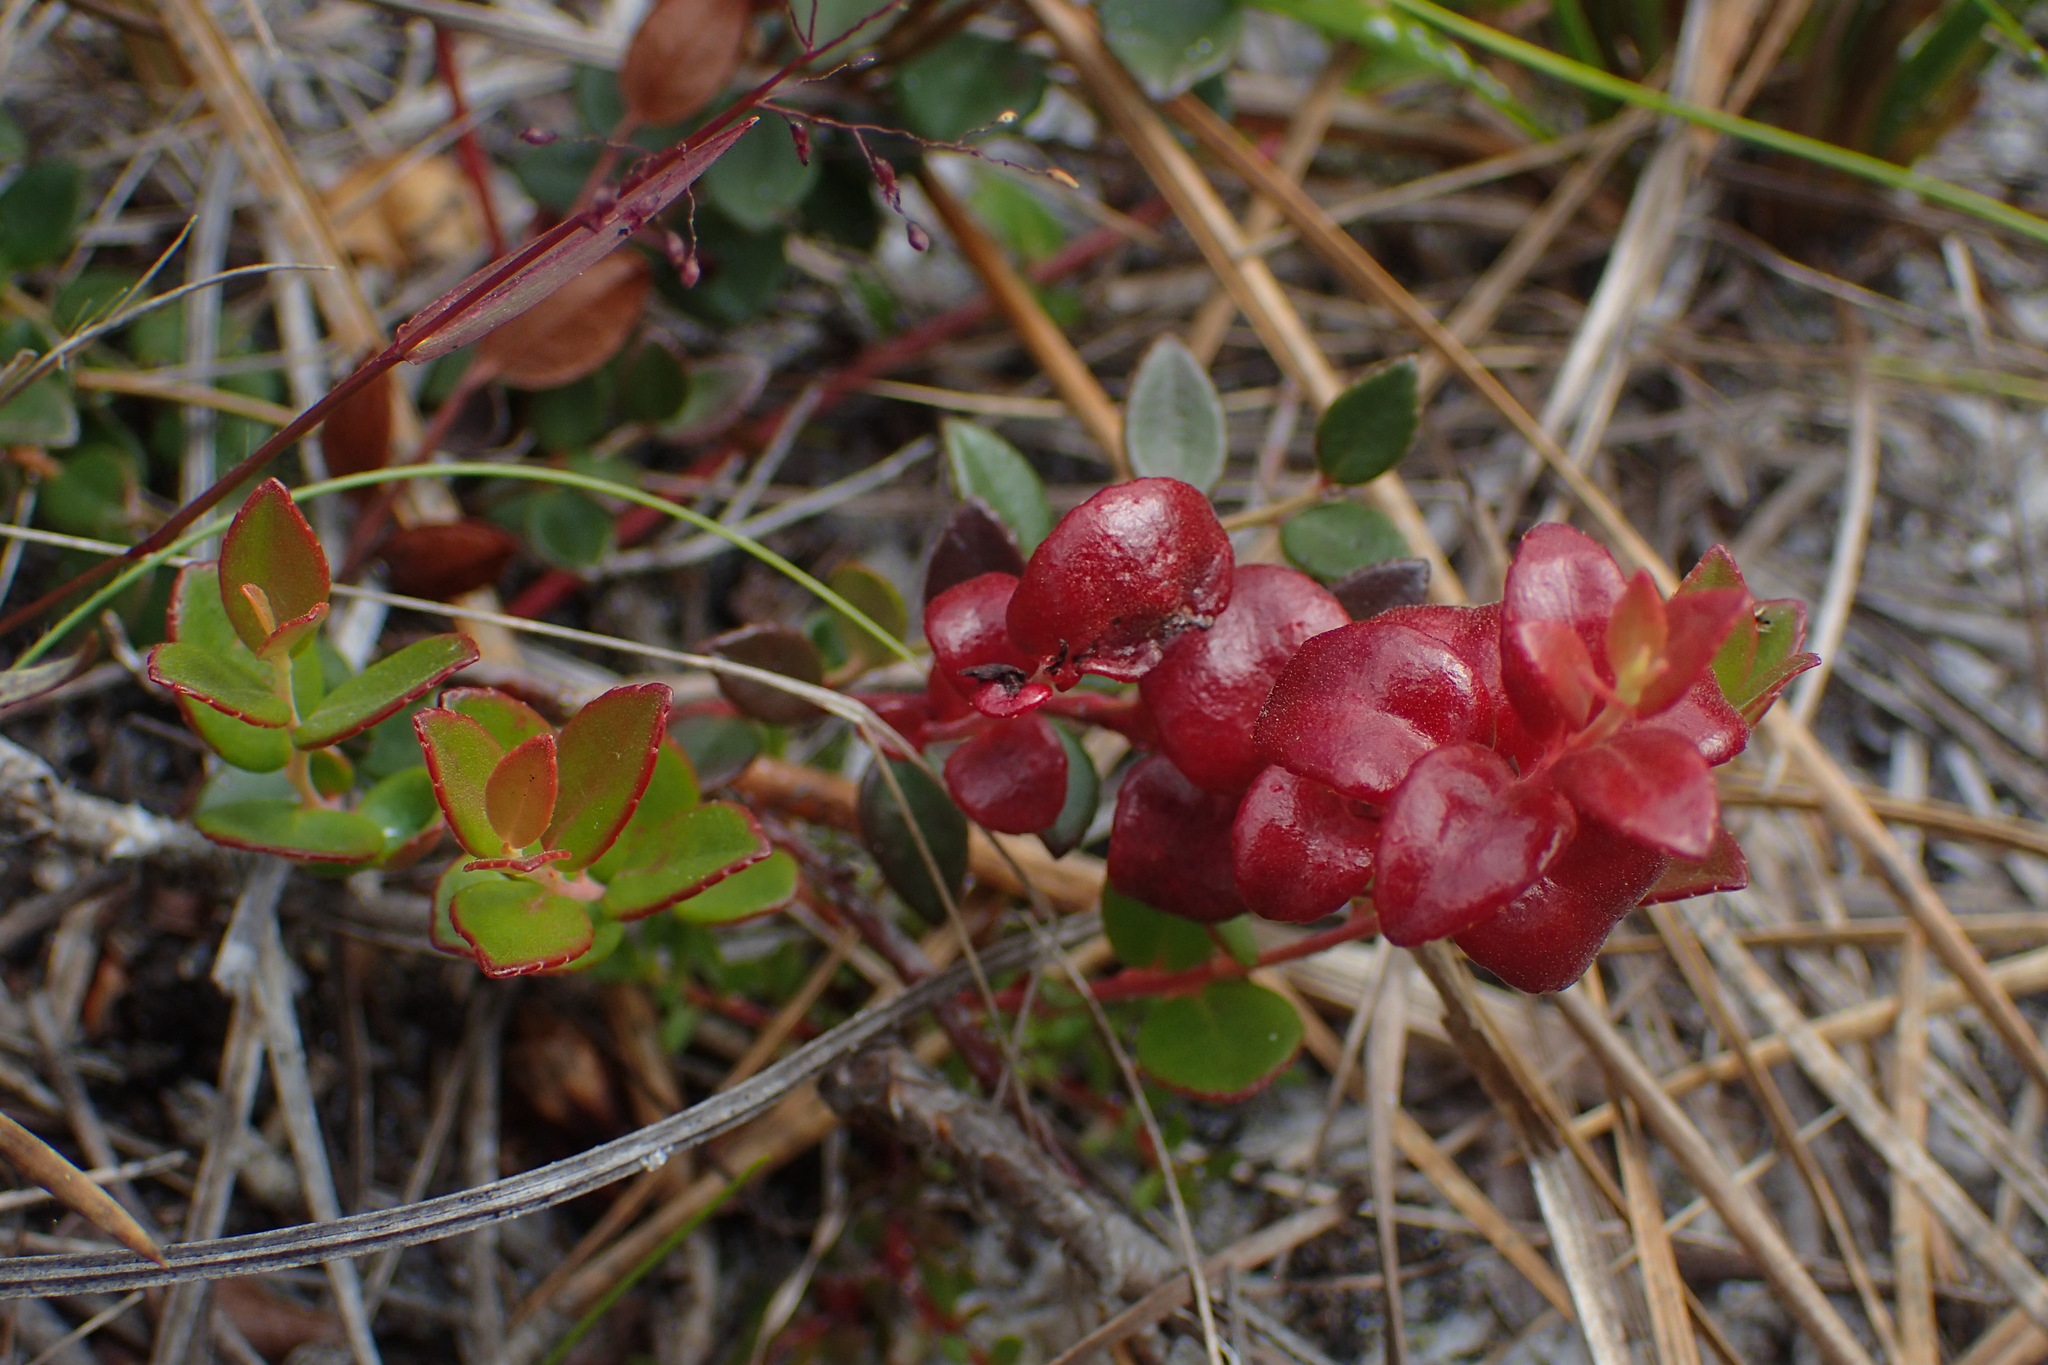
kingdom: Plantae
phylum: Tracheophyta
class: Magnoliopsida
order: Ericales
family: Ericaceae
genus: Vaccinium
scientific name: Vaccinium crassifolium
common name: Creeping blueberry
